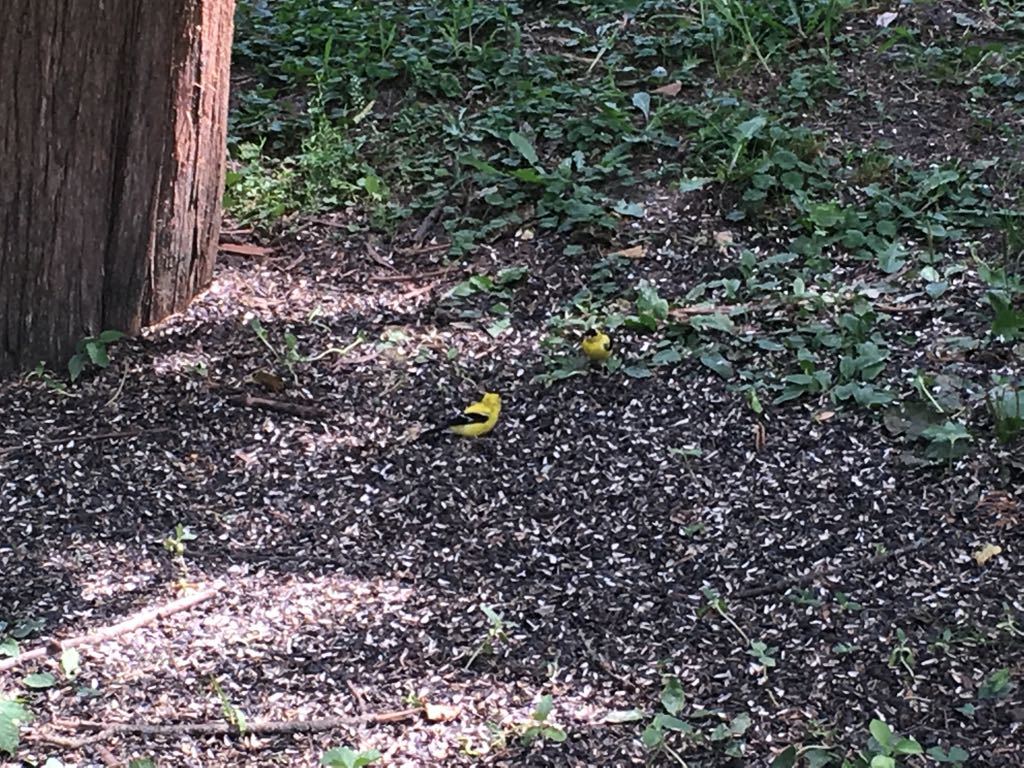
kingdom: Animalia
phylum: Chordata
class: Aves
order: Passeriformes
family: Fringillidae
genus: Spinus
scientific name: Spinus tristis
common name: American goldfinch
